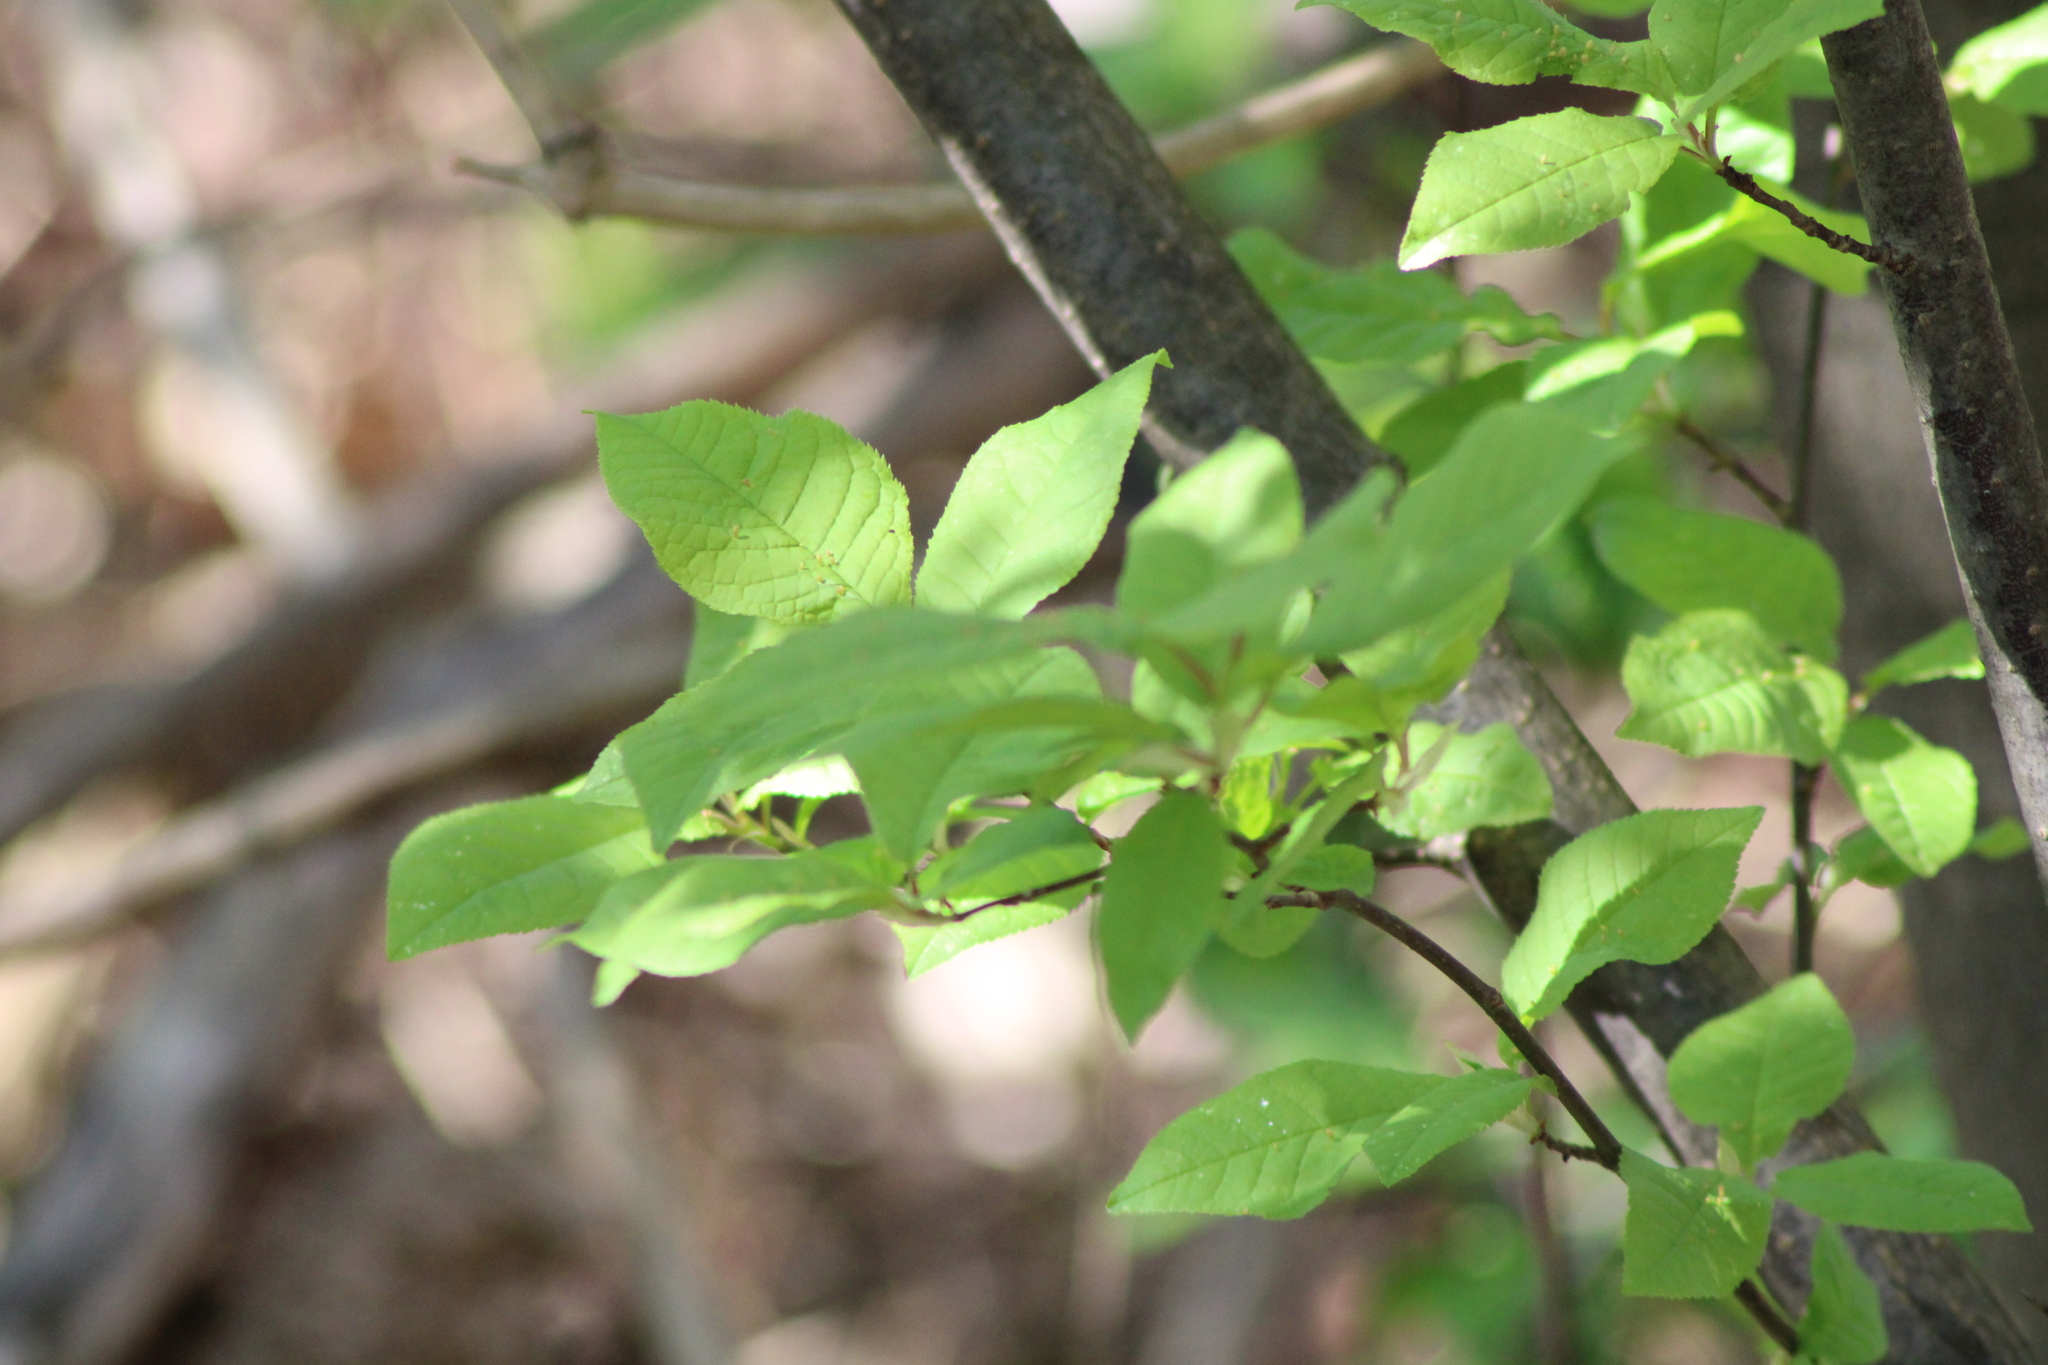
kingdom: Plantae
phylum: Tracheophyta
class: Magnoliopsida
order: Rosales
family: Rosaceae
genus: Prunus
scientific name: Prunus padus
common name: Bird cherry
